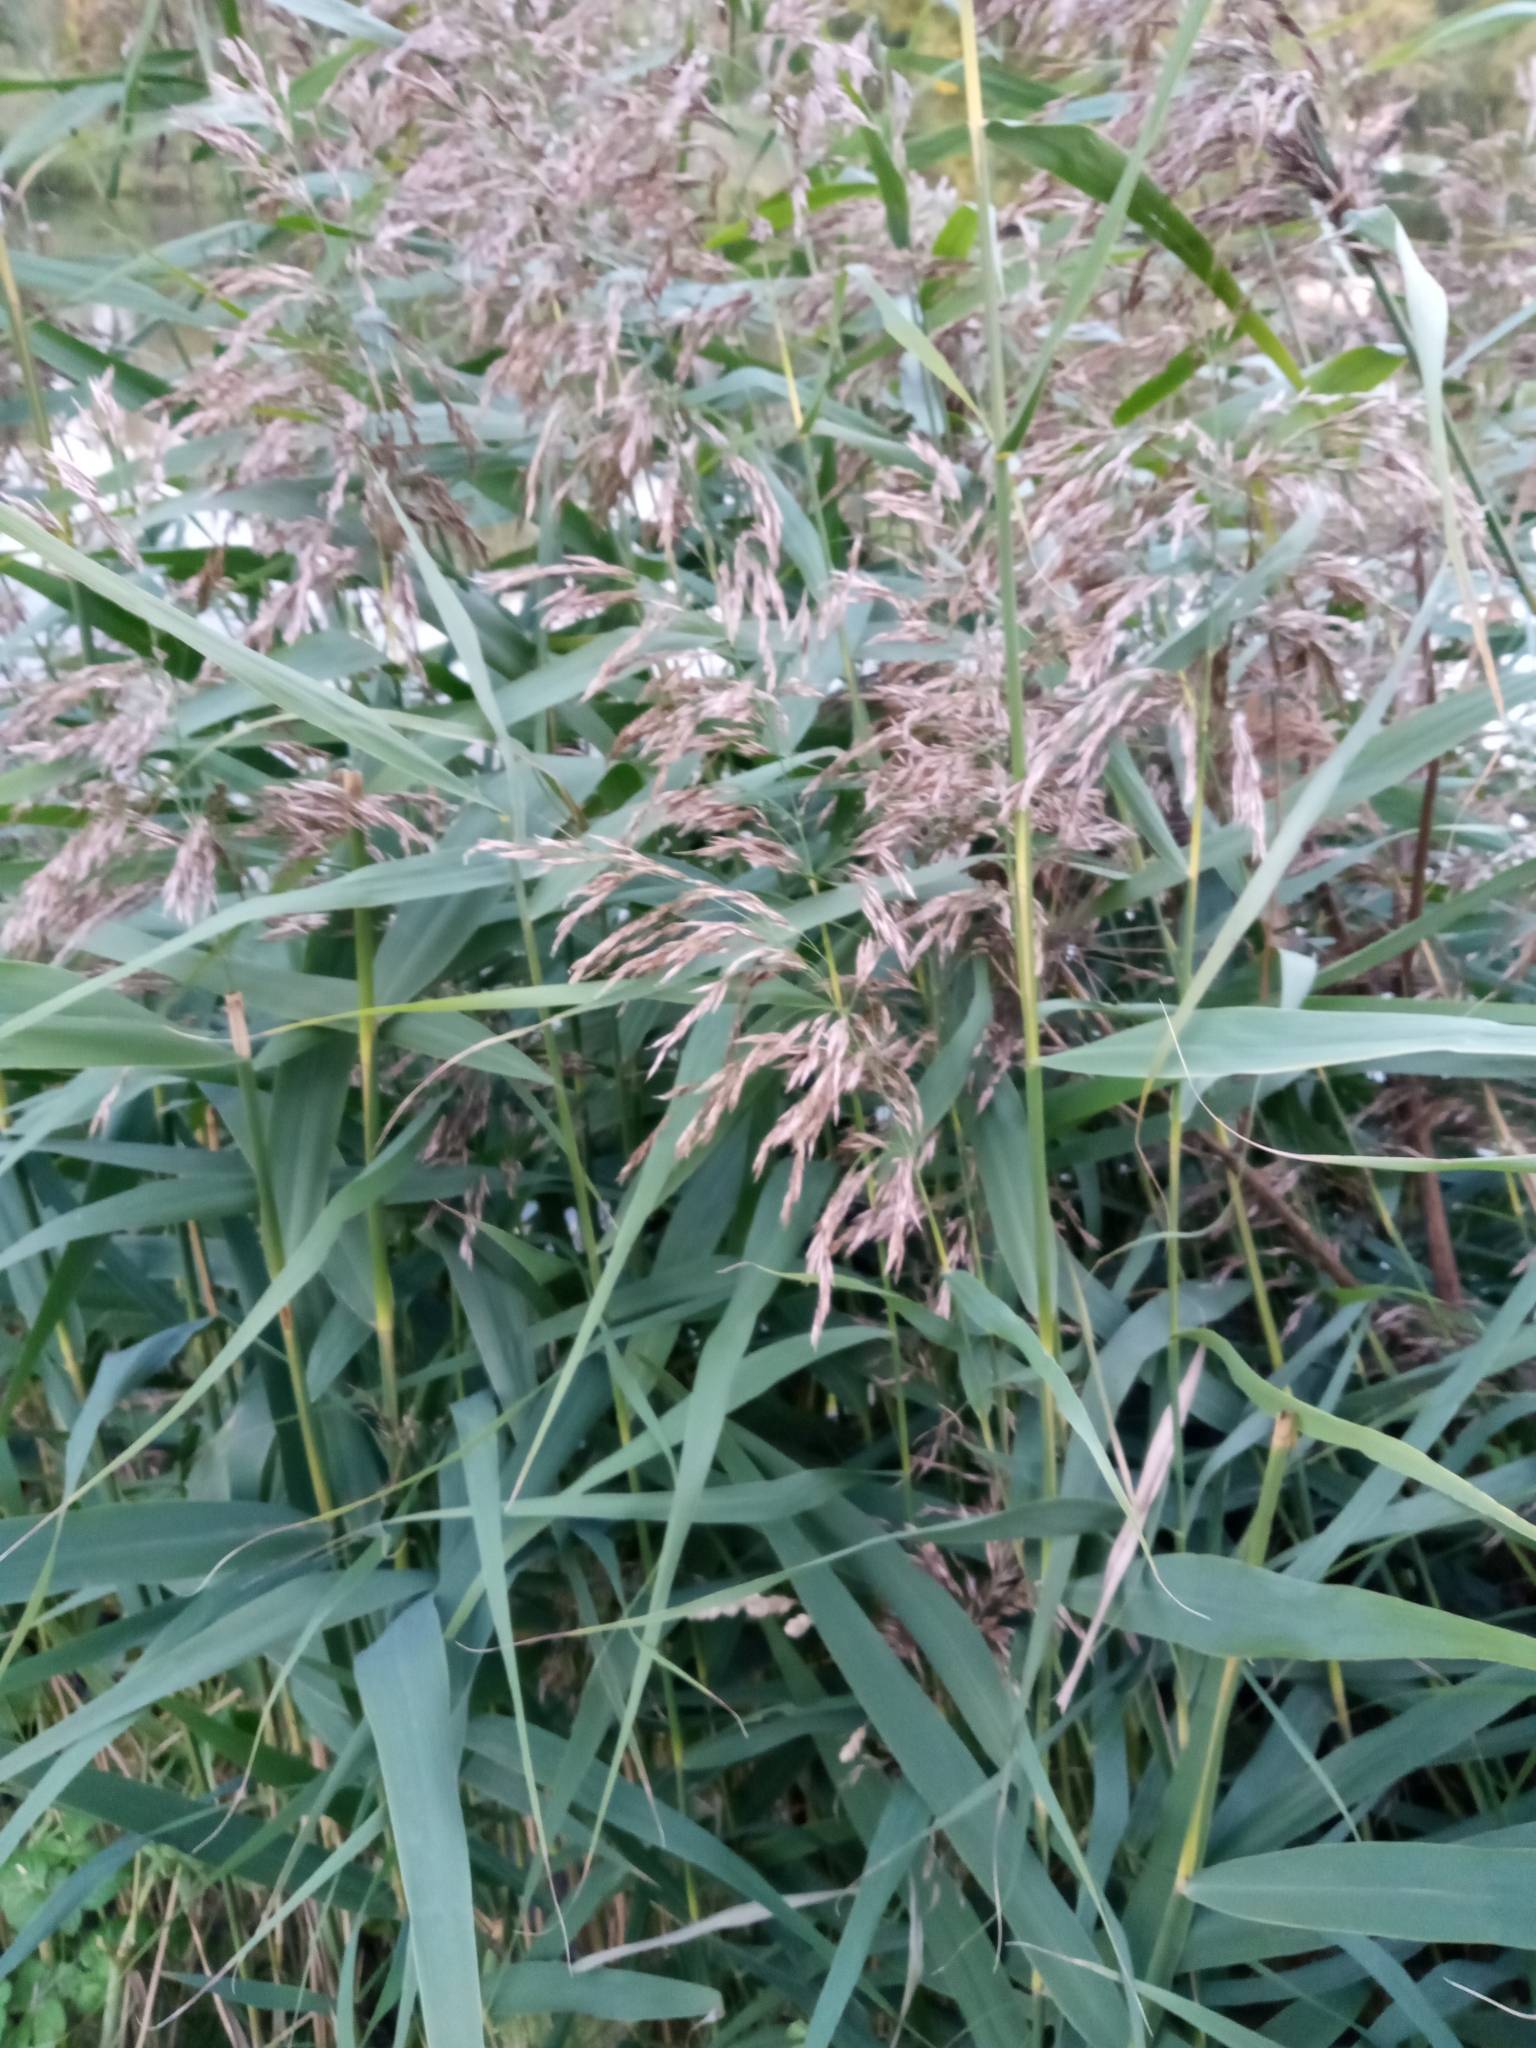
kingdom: Plantae
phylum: Tracheophyta
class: Liliopsida
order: Poales
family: Poaceae
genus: Phragmites
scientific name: Phragmites australis
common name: Common reed
